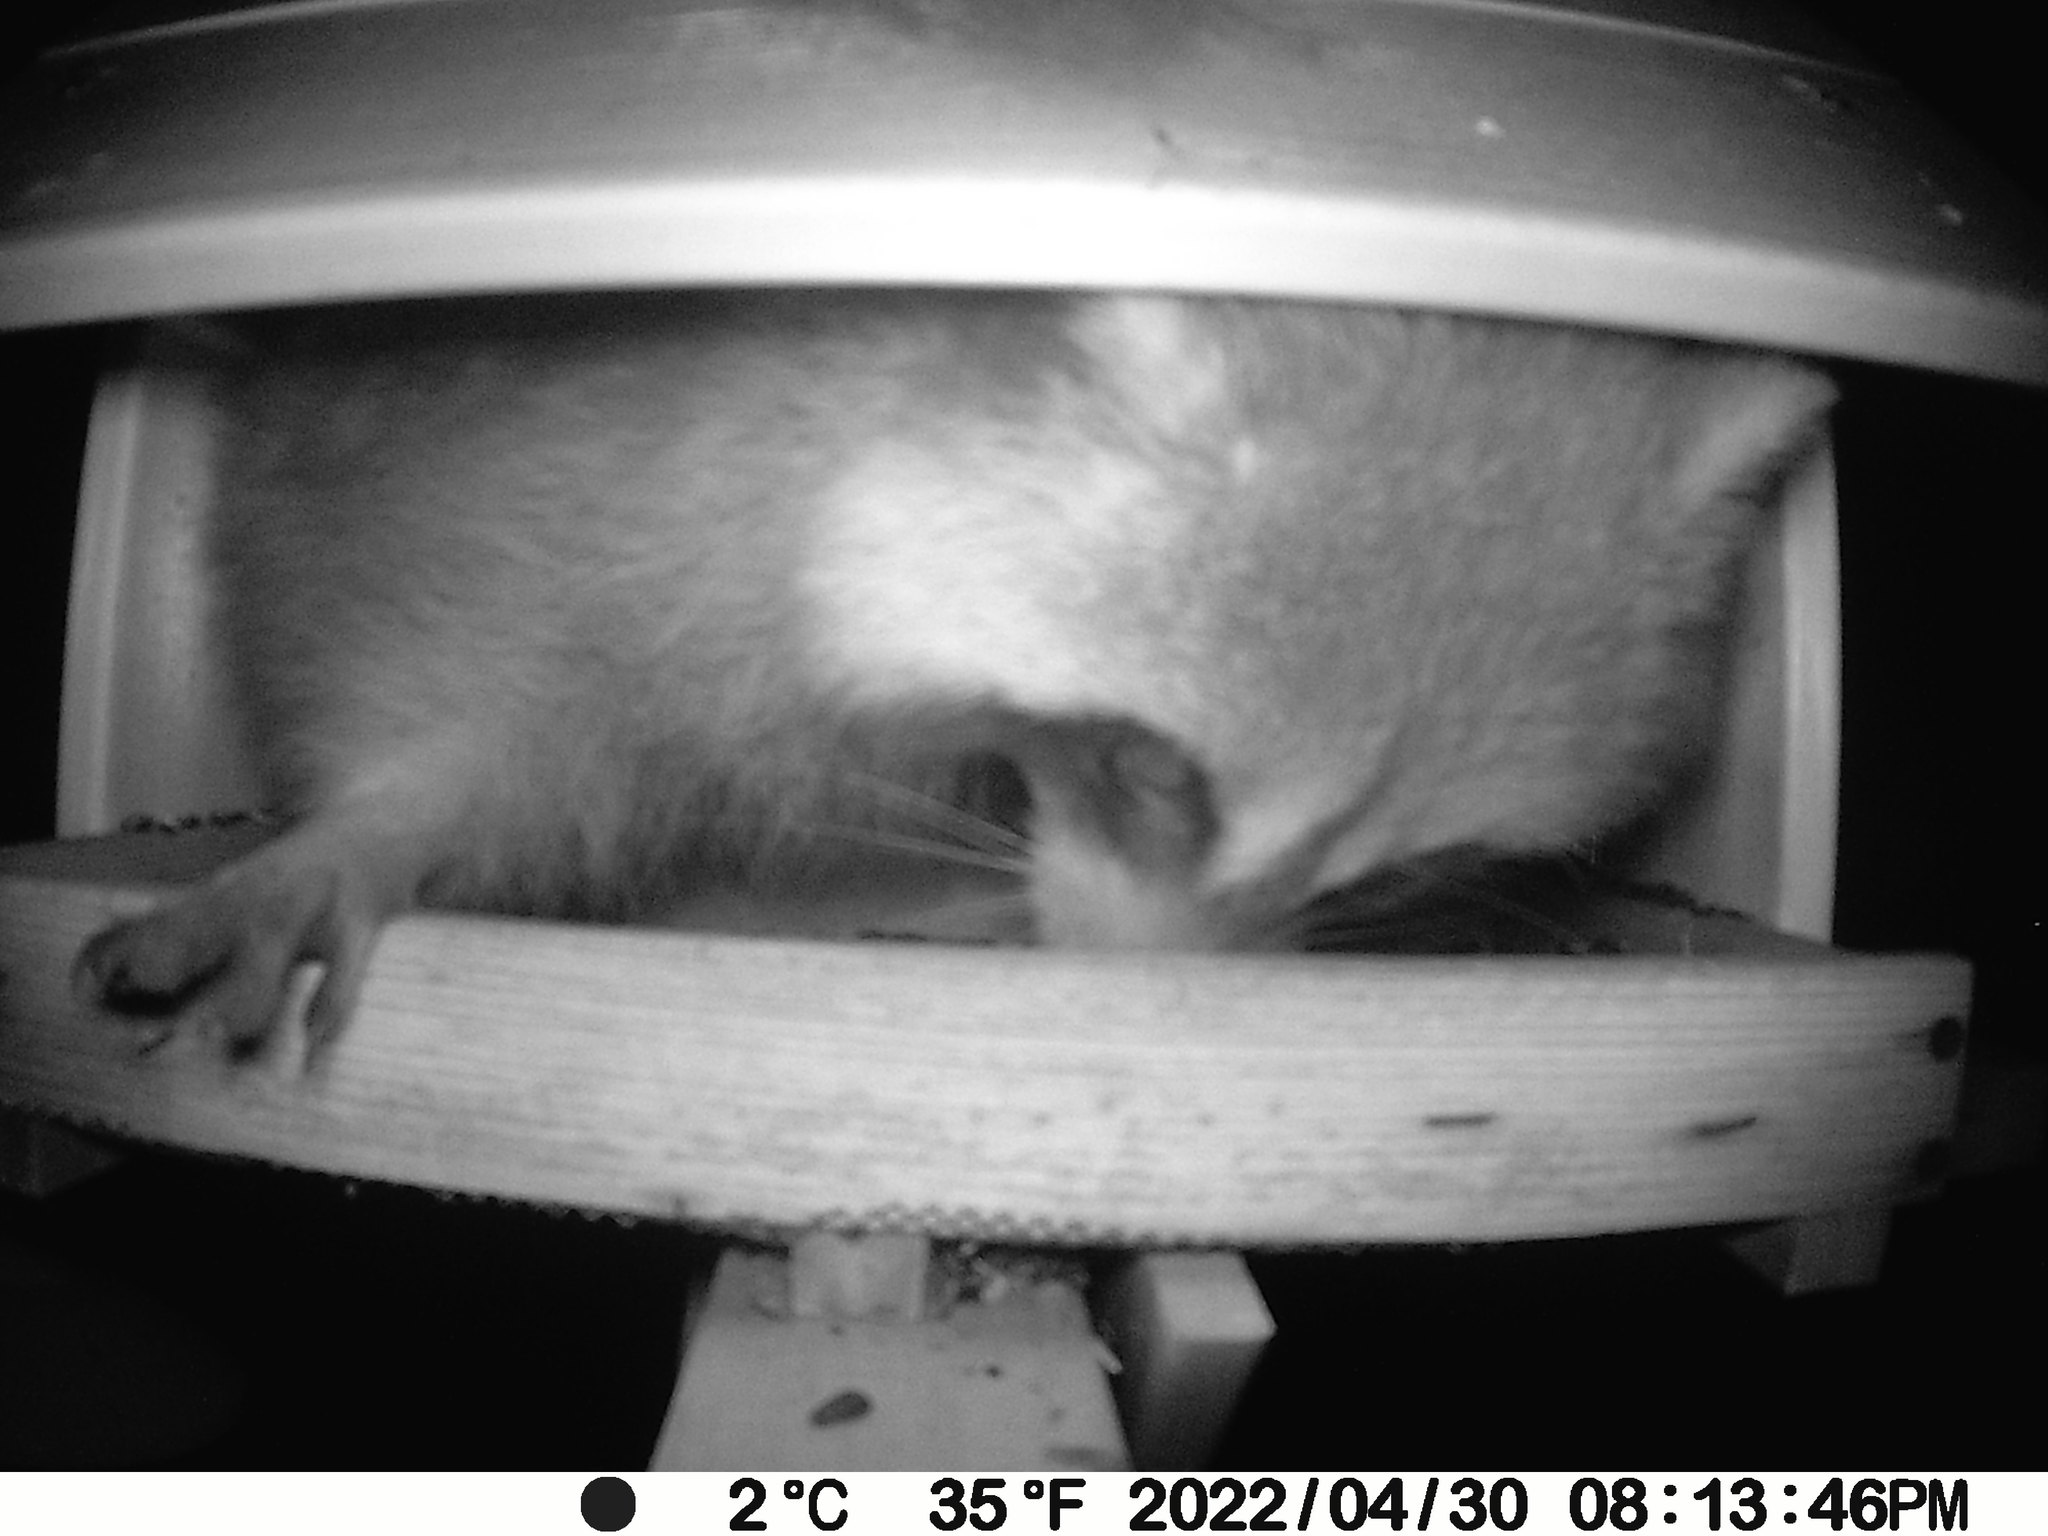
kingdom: Animalia
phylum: Chordata
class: Mammalia
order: Carnivora
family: Procyonidae
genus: Procyon
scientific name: Procyon lotor
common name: Raccoon
